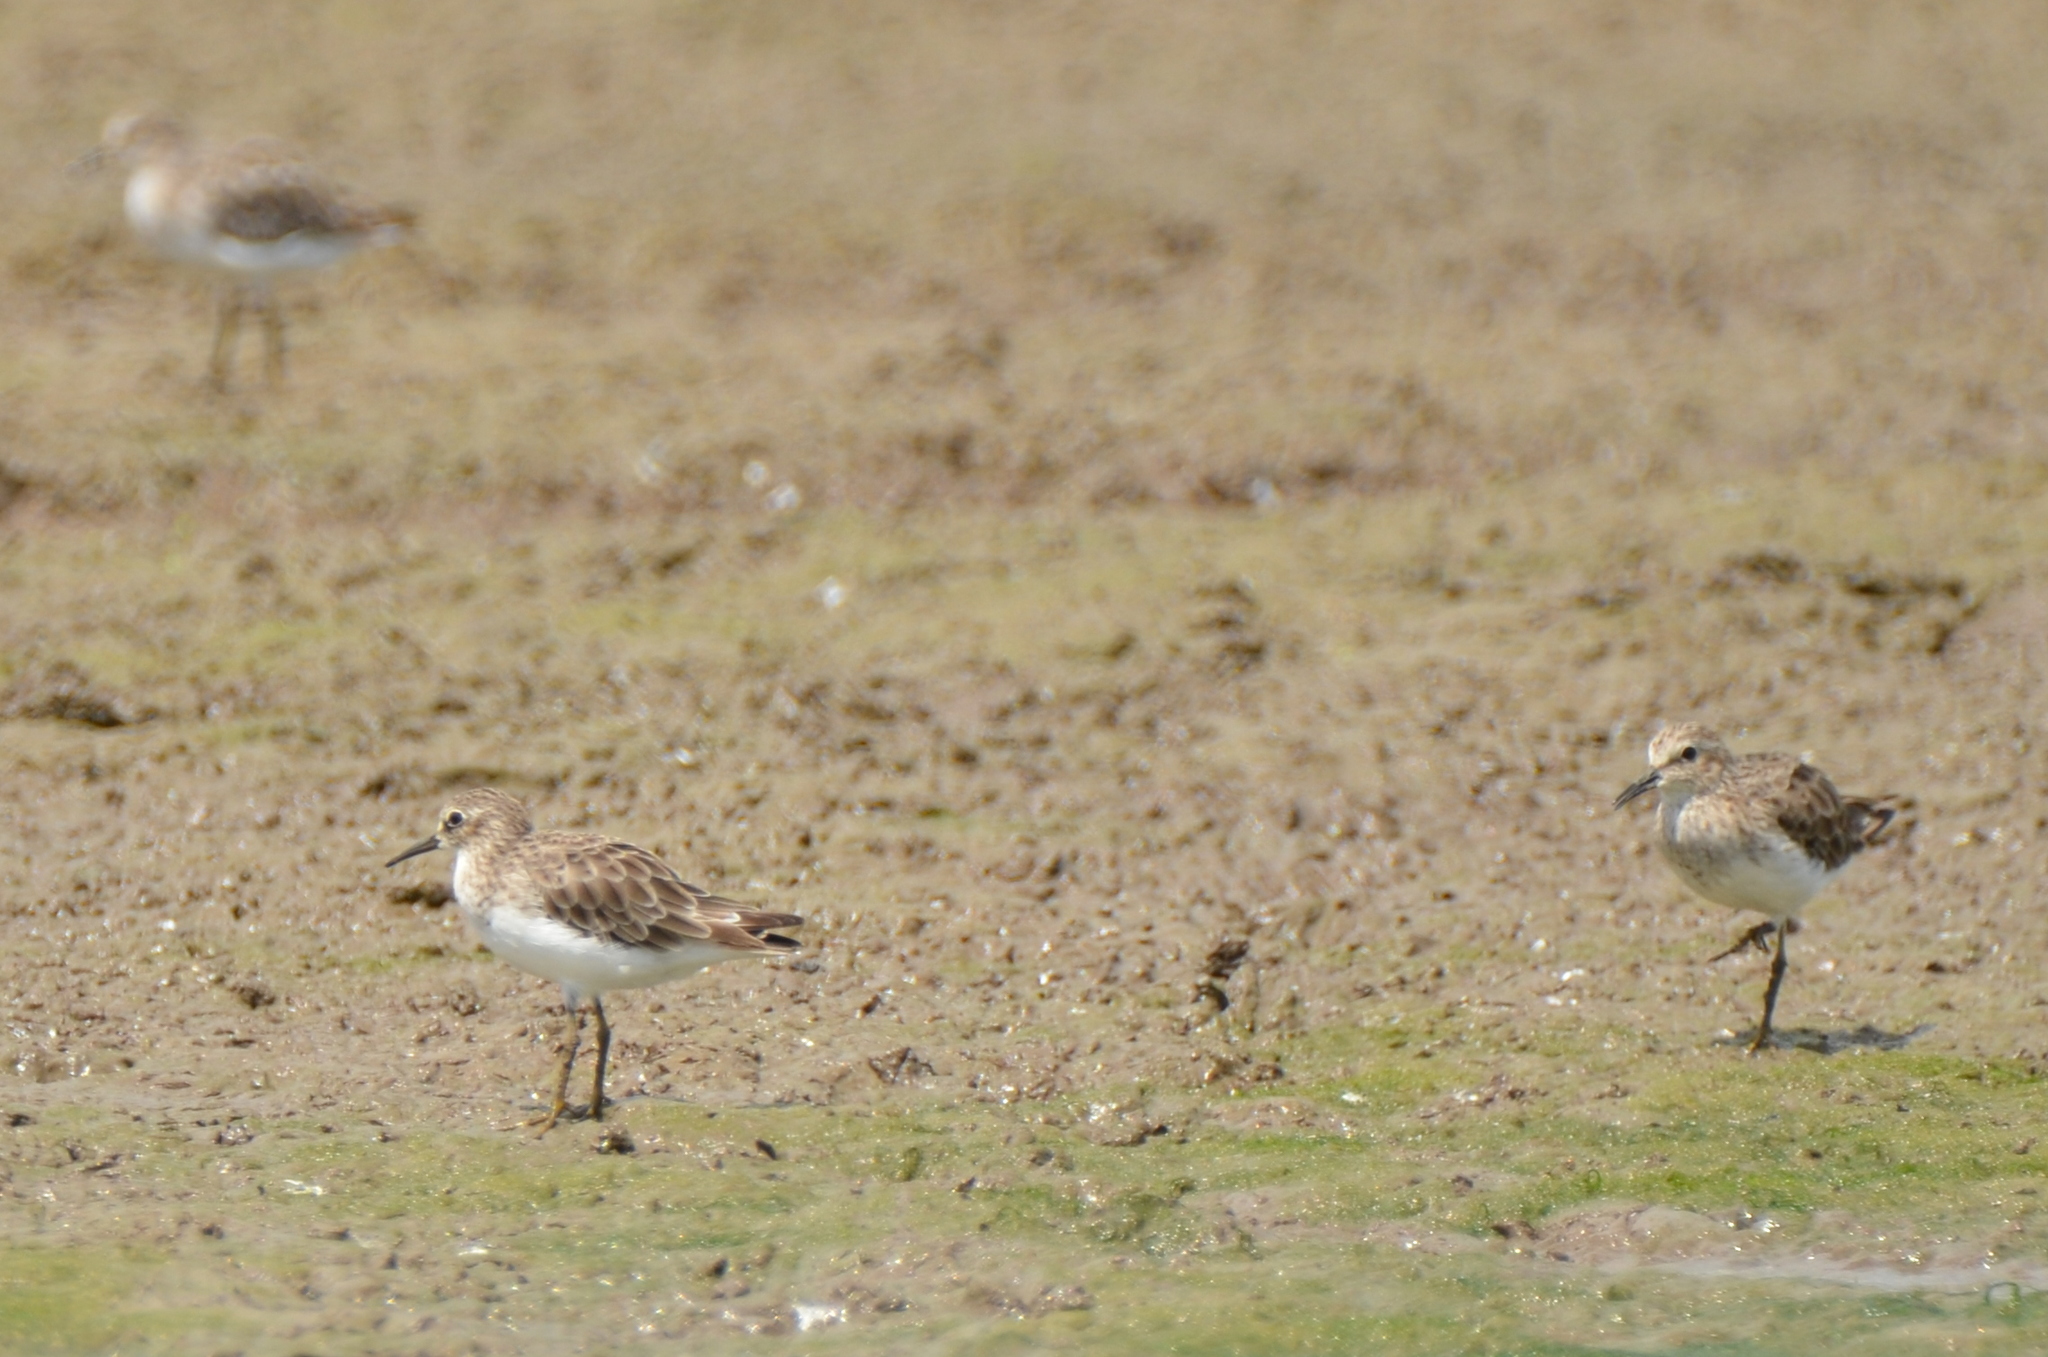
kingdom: Animalia
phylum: Chordata
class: Aves
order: Charadriiformes
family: Scolopacidae
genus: Calidris
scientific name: Calidris minutilla
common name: Least sandpiper
